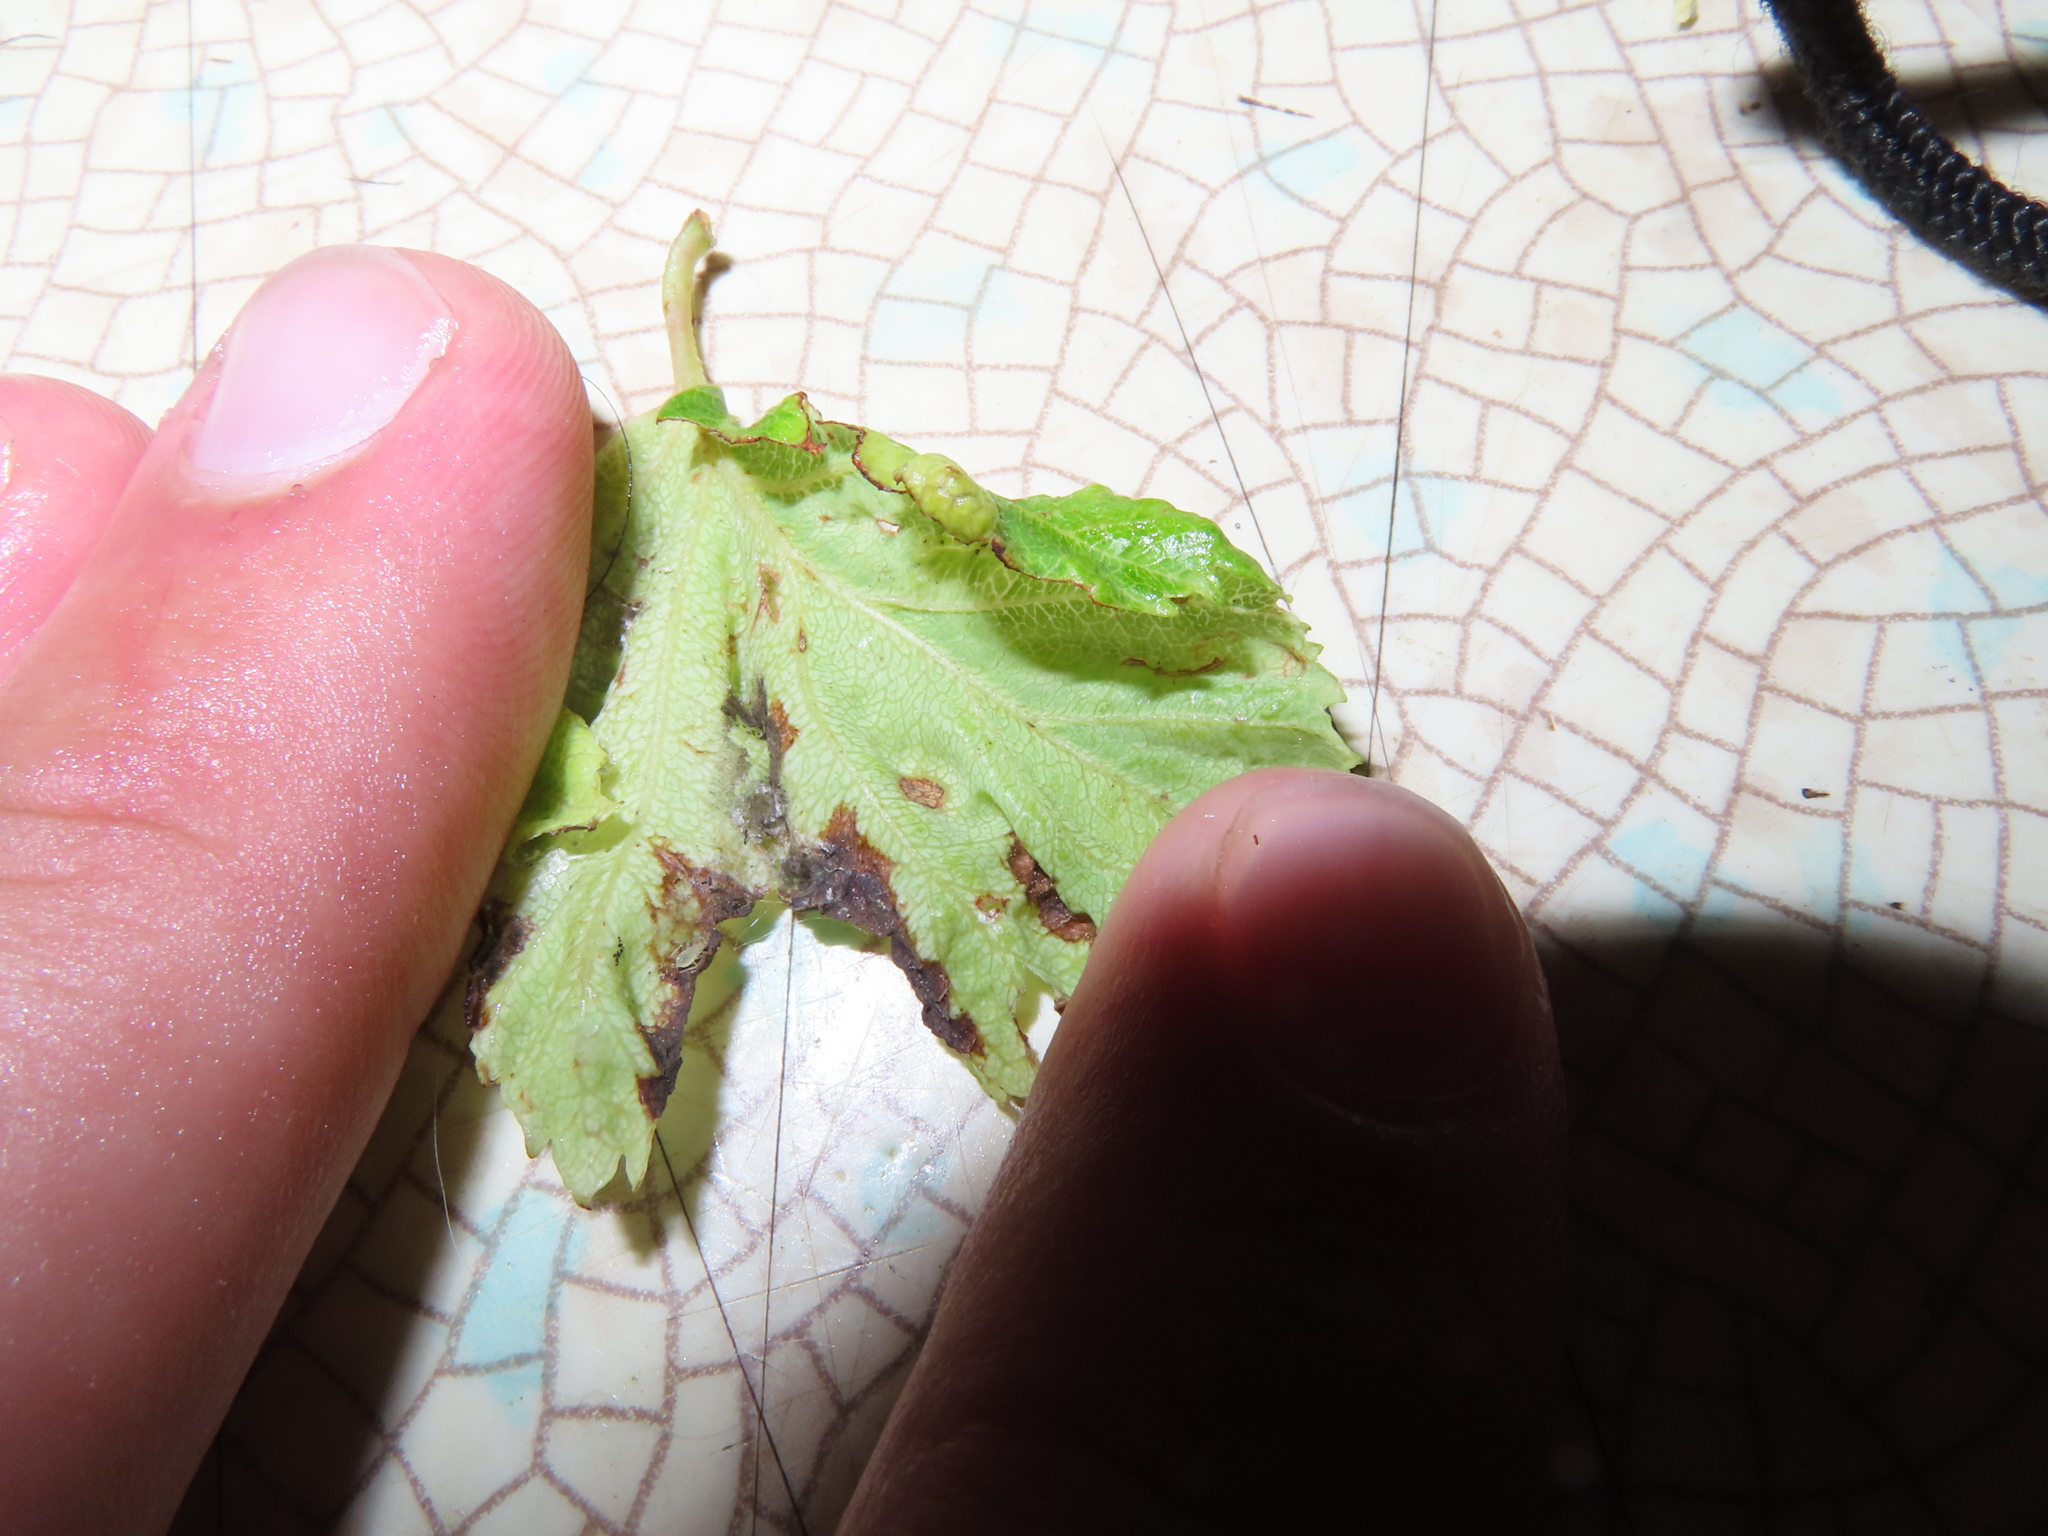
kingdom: Animalia
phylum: Arthropoda
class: Insecta
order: Hemiptera
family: Aphididae
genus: Hamamelistes
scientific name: Hamamelistes spinosus
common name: Witch hazel gall aphid
